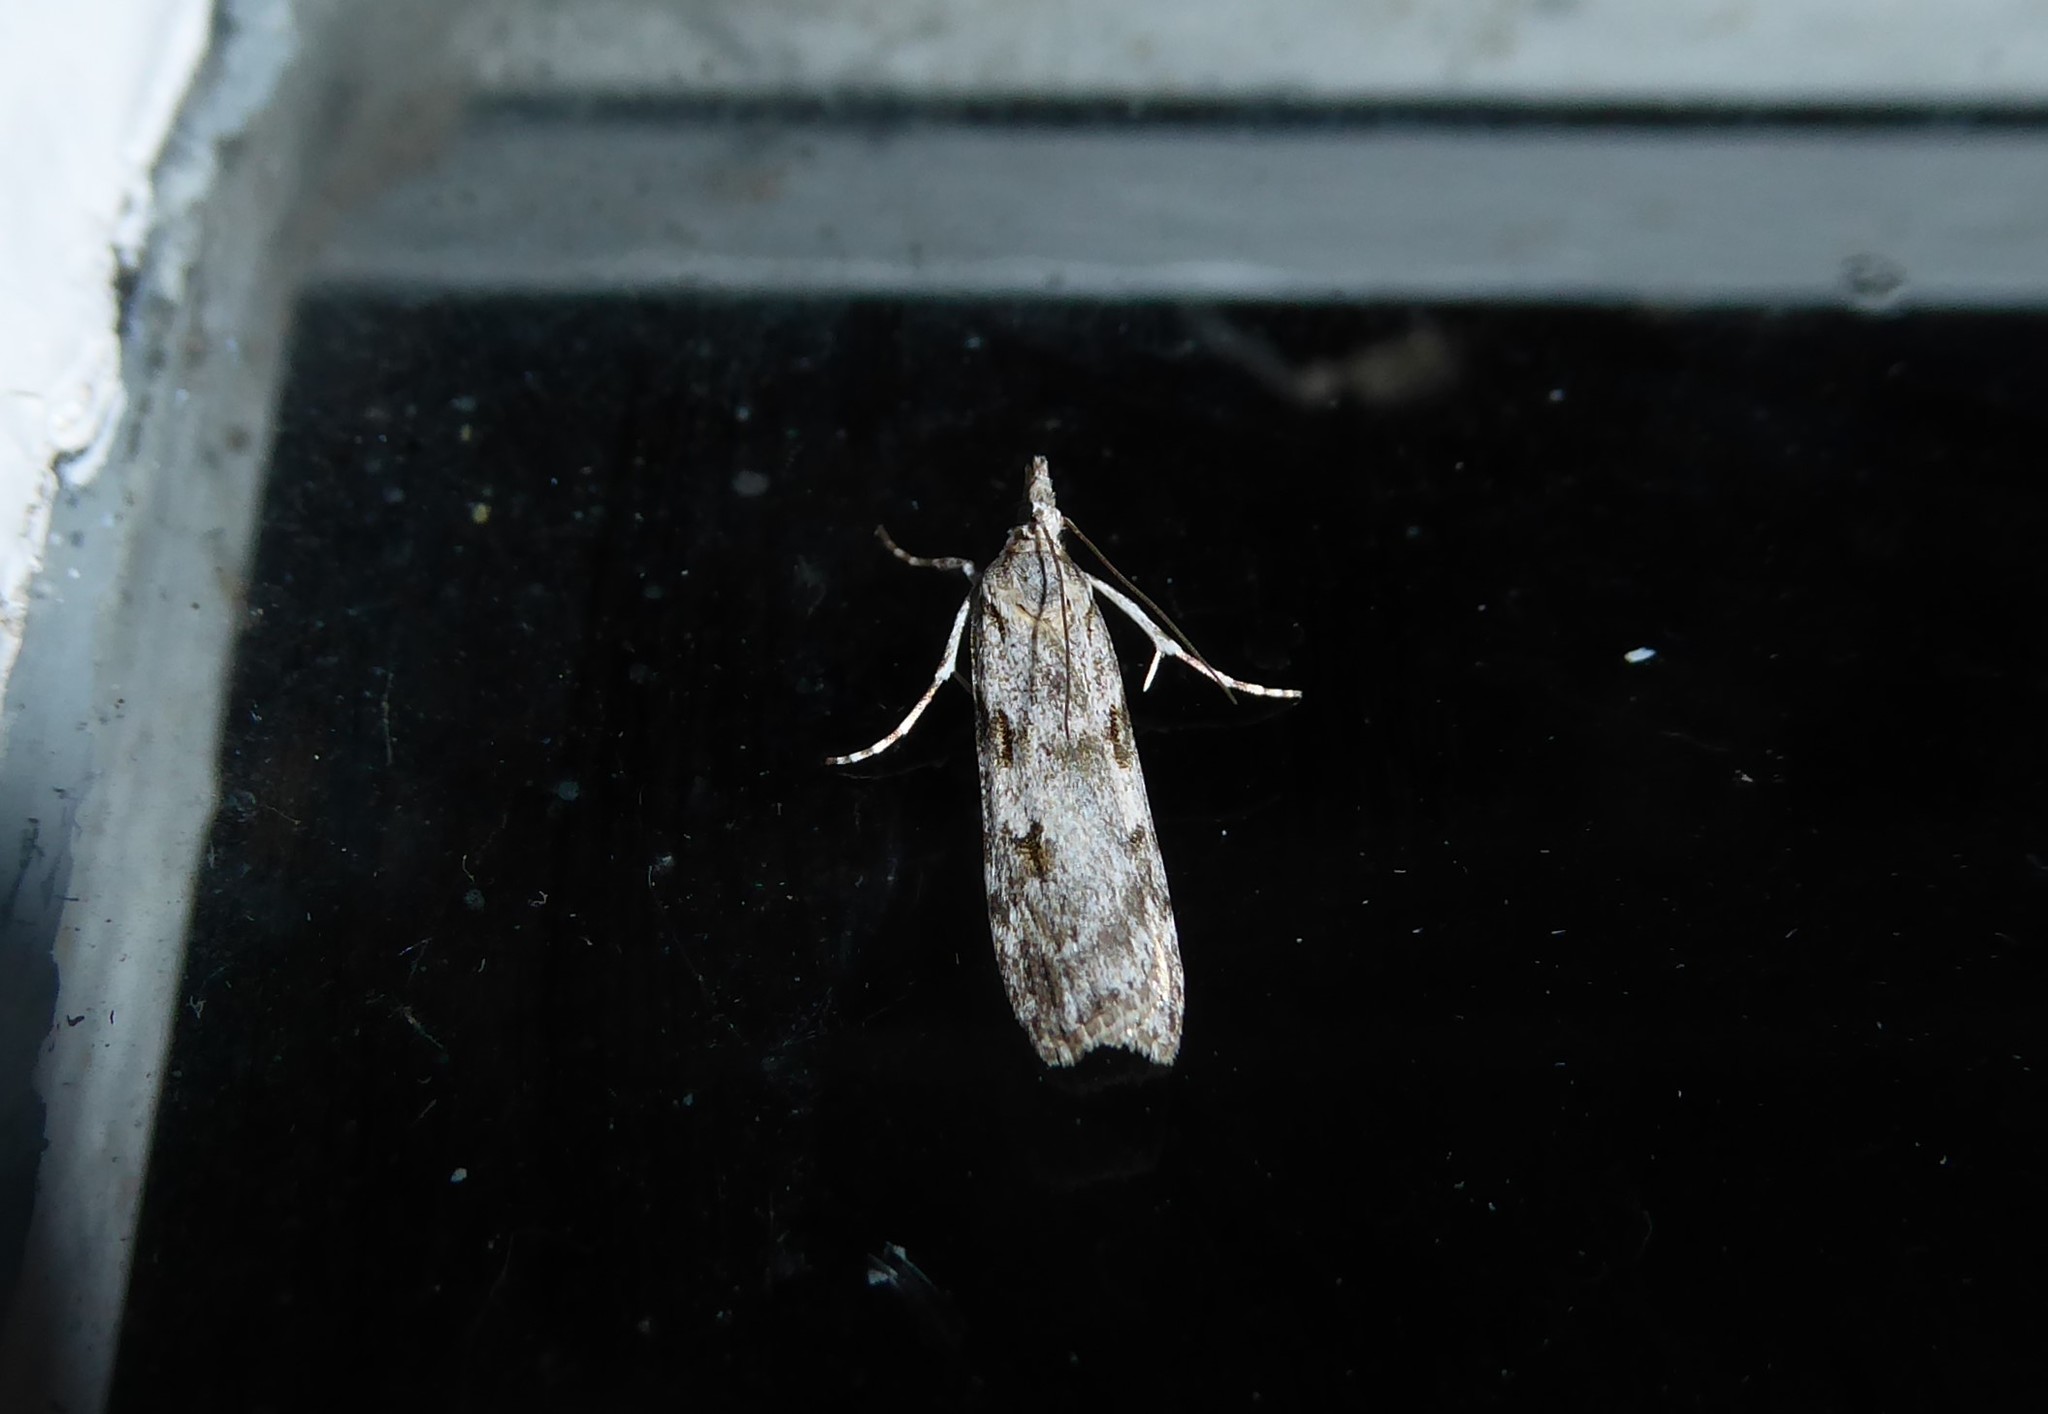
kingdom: Animalia
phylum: Arthropoda
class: Insecta
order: Lepidoptera
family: Crambidae
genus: Scoparia
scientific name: Scoparia halopis
